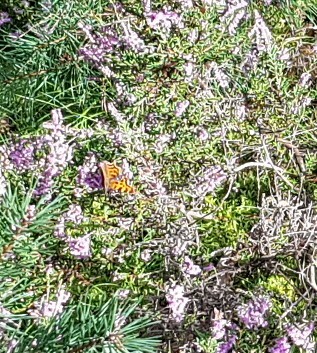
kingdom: Animalia
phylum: Arthropoda
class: Insecta
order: Lepidoptera
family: Nymphalidae
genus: Polygonia
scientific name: Polygonia c-album
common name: Comma
